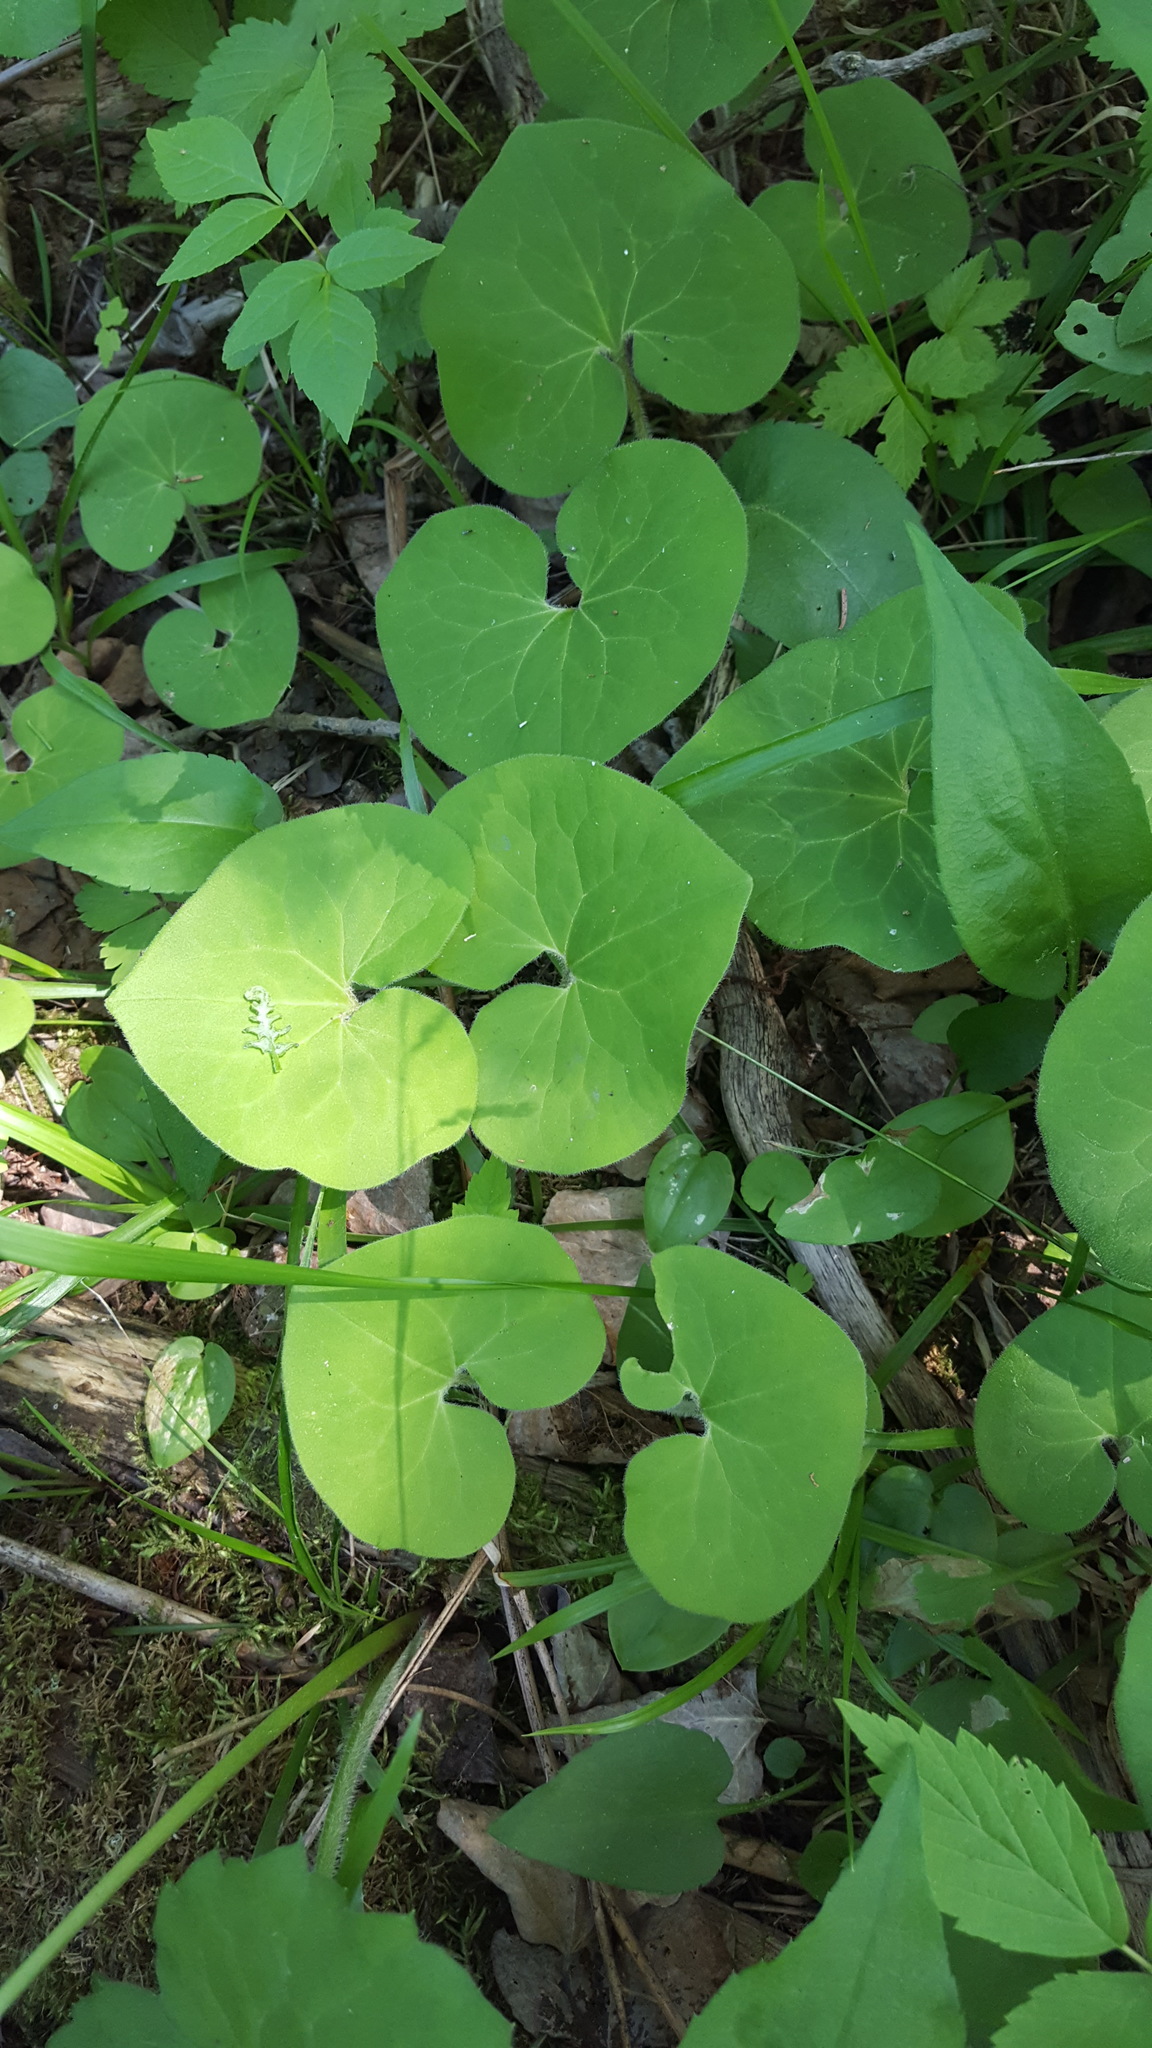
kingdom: Plantae
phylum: Tracheophyta
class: Magnoliopsida
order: Piperales
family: Aristolochiaceae
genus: Asarum
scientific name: Asarum canadense
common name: Wild ginger
